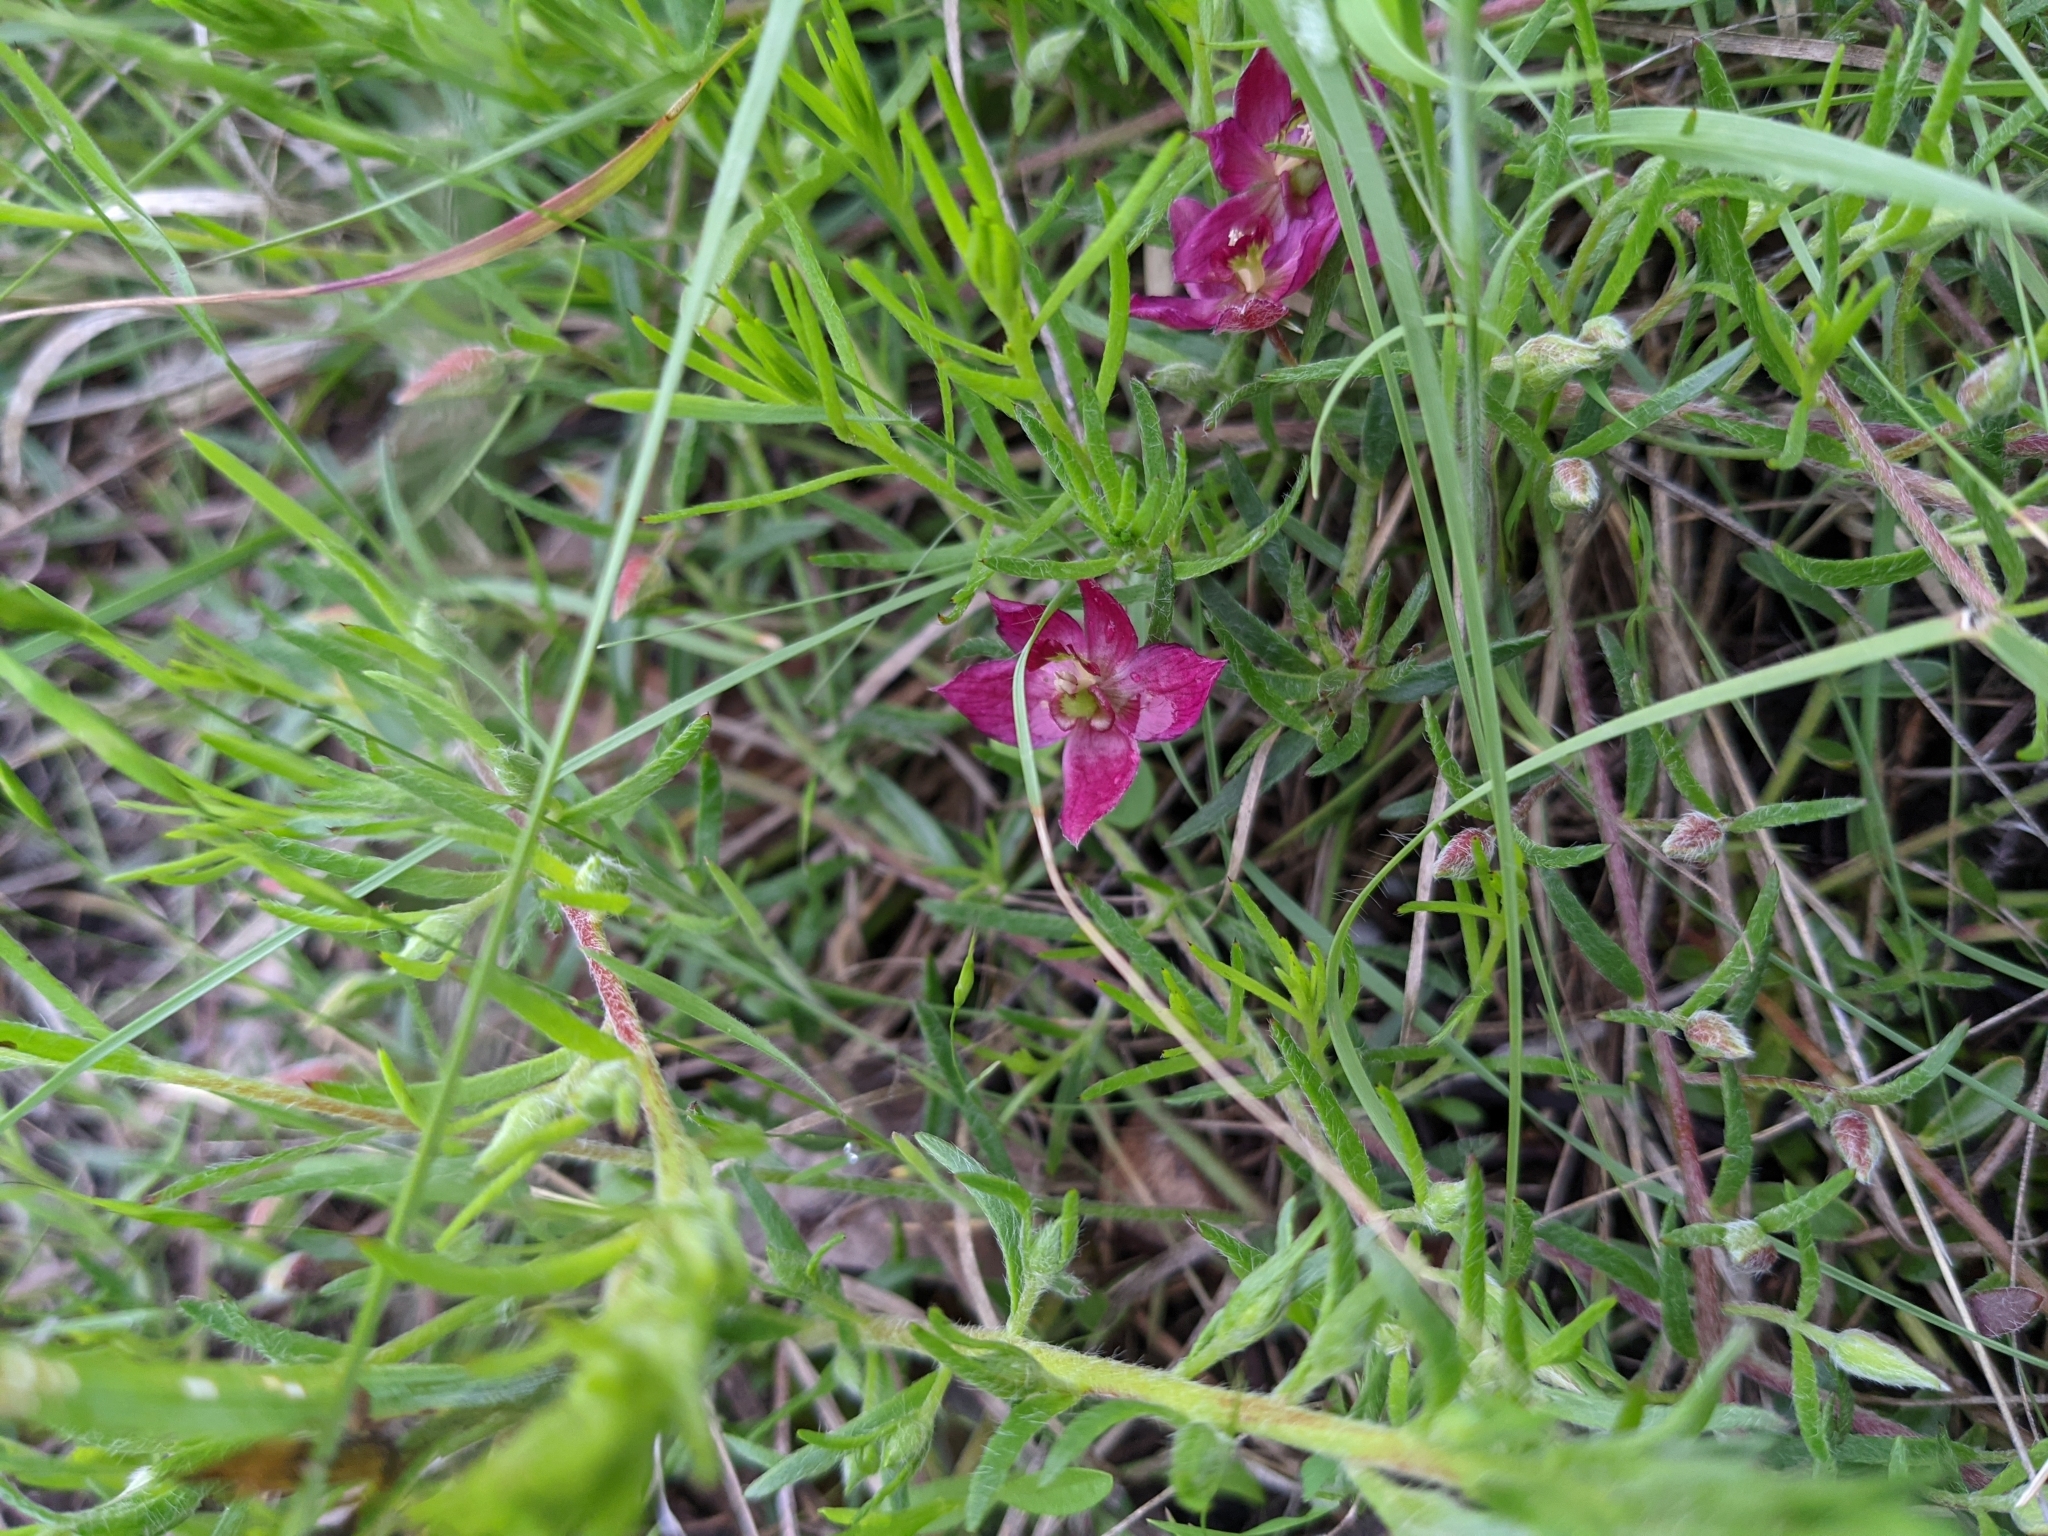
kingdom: Plantae
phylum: Tracheophyta
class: Magnoliopsida
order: Zygophyllales
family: Krameriaceae
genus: Krameria
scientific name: Krameria lanceolata
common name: Ratany
